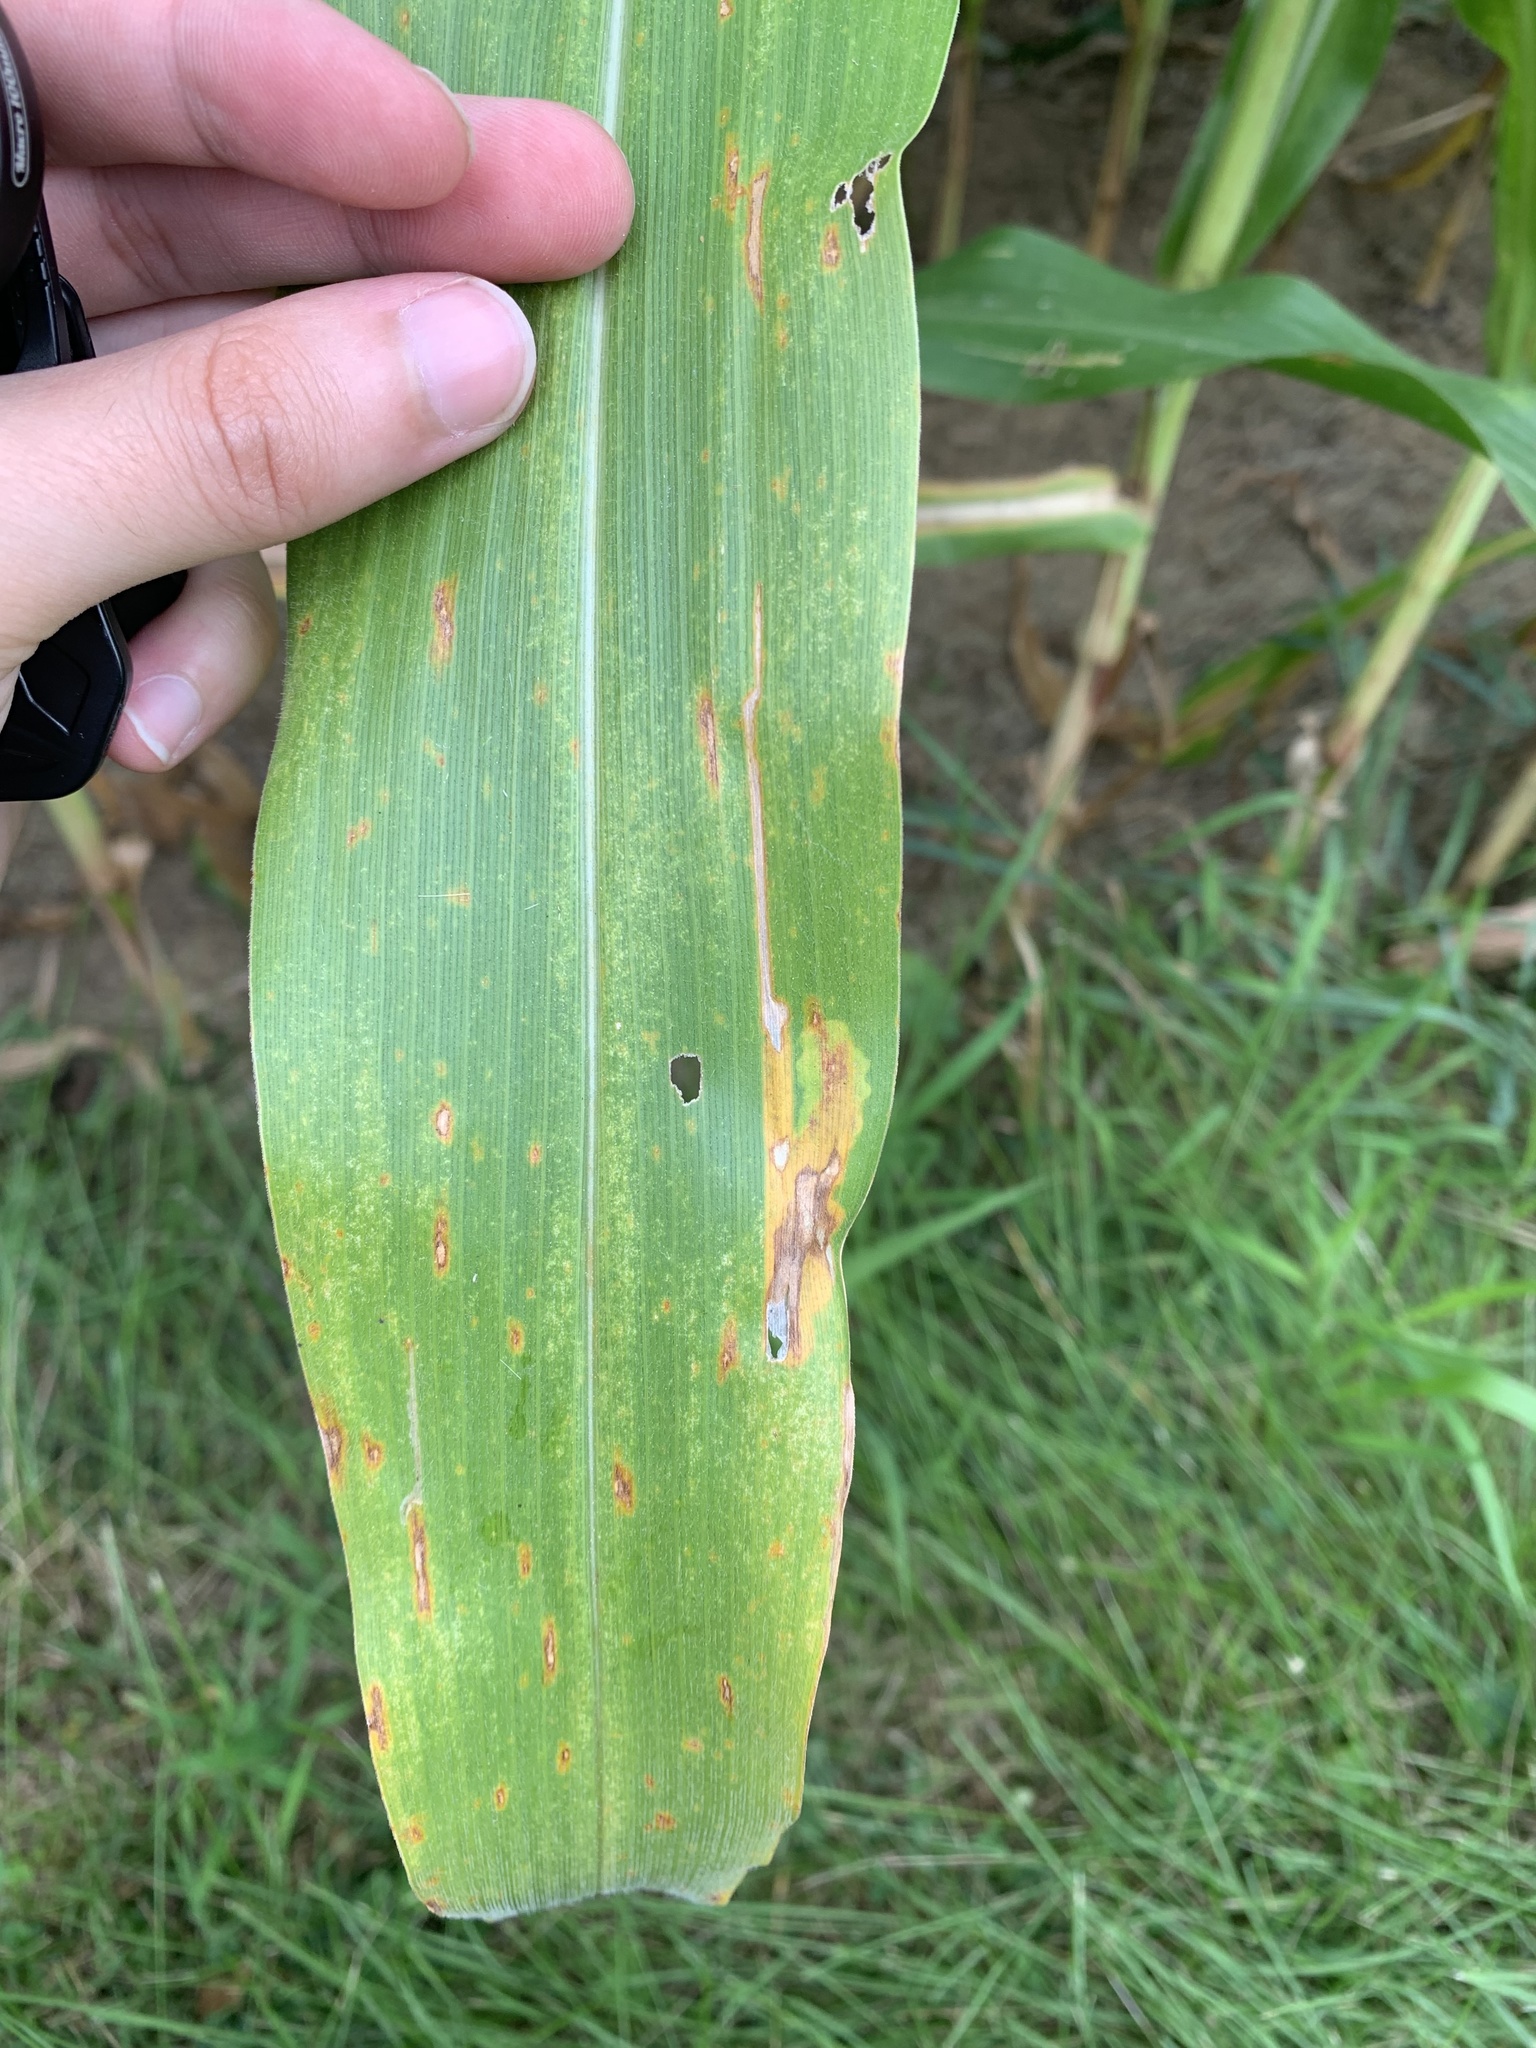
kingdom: Animalia
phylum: Arthropoda
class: Insecta
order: Diptera
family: Agromyzidae
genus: Agromyza
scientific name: Agromyza parvicornis
